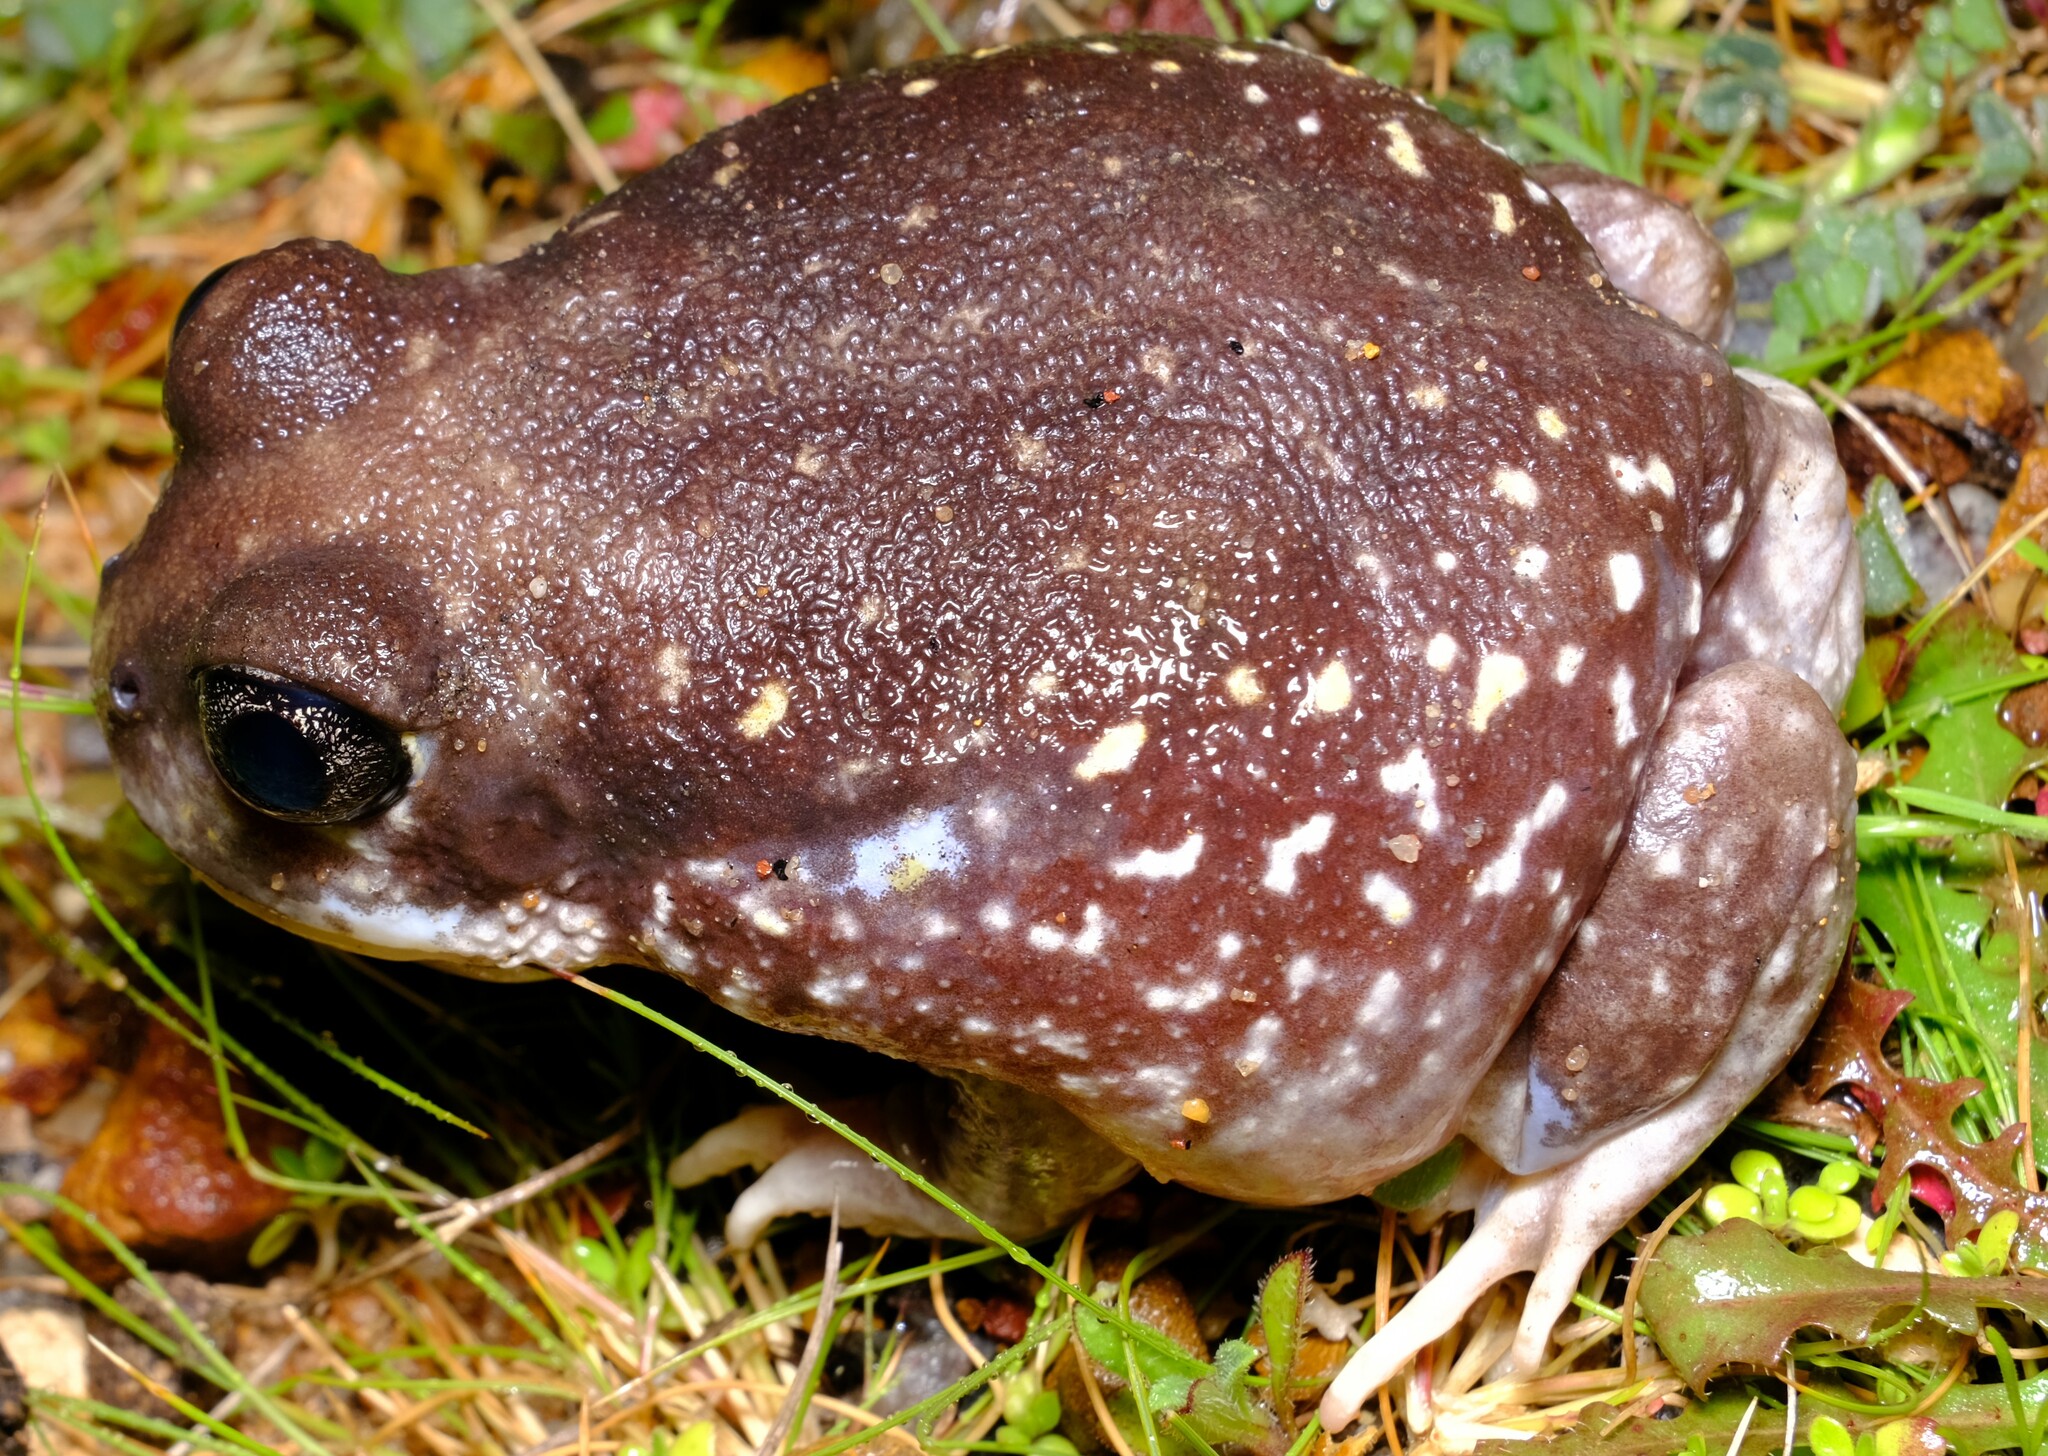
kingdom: Animalia
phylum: Chordata
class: Amphibia
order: Anura
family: Limnodynastidae
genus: Heleioporus
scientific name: Heleioporus albopunctatus
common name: Western spotted frog
